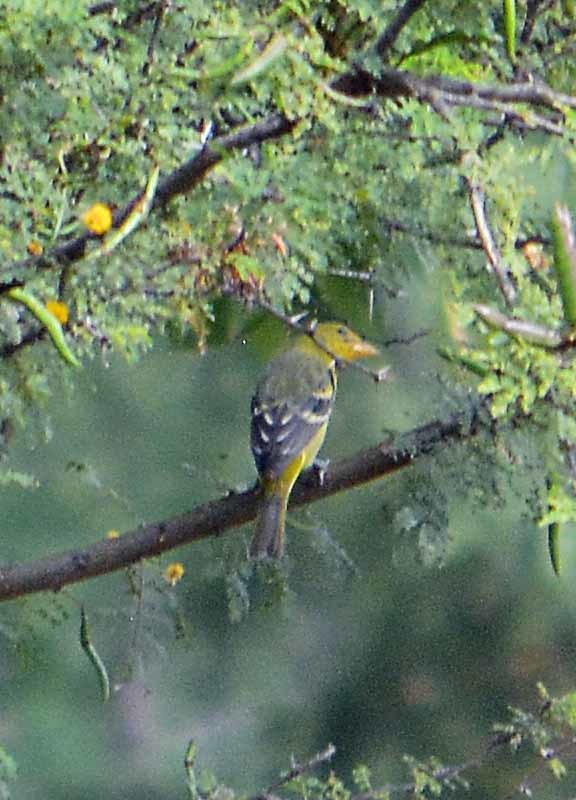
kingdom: Animalia
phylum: Chordata
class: Aves
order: Passeriformes
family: Cardinalidae
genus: Piranga
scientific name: Piranga ludoviciana
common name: Western tanager
